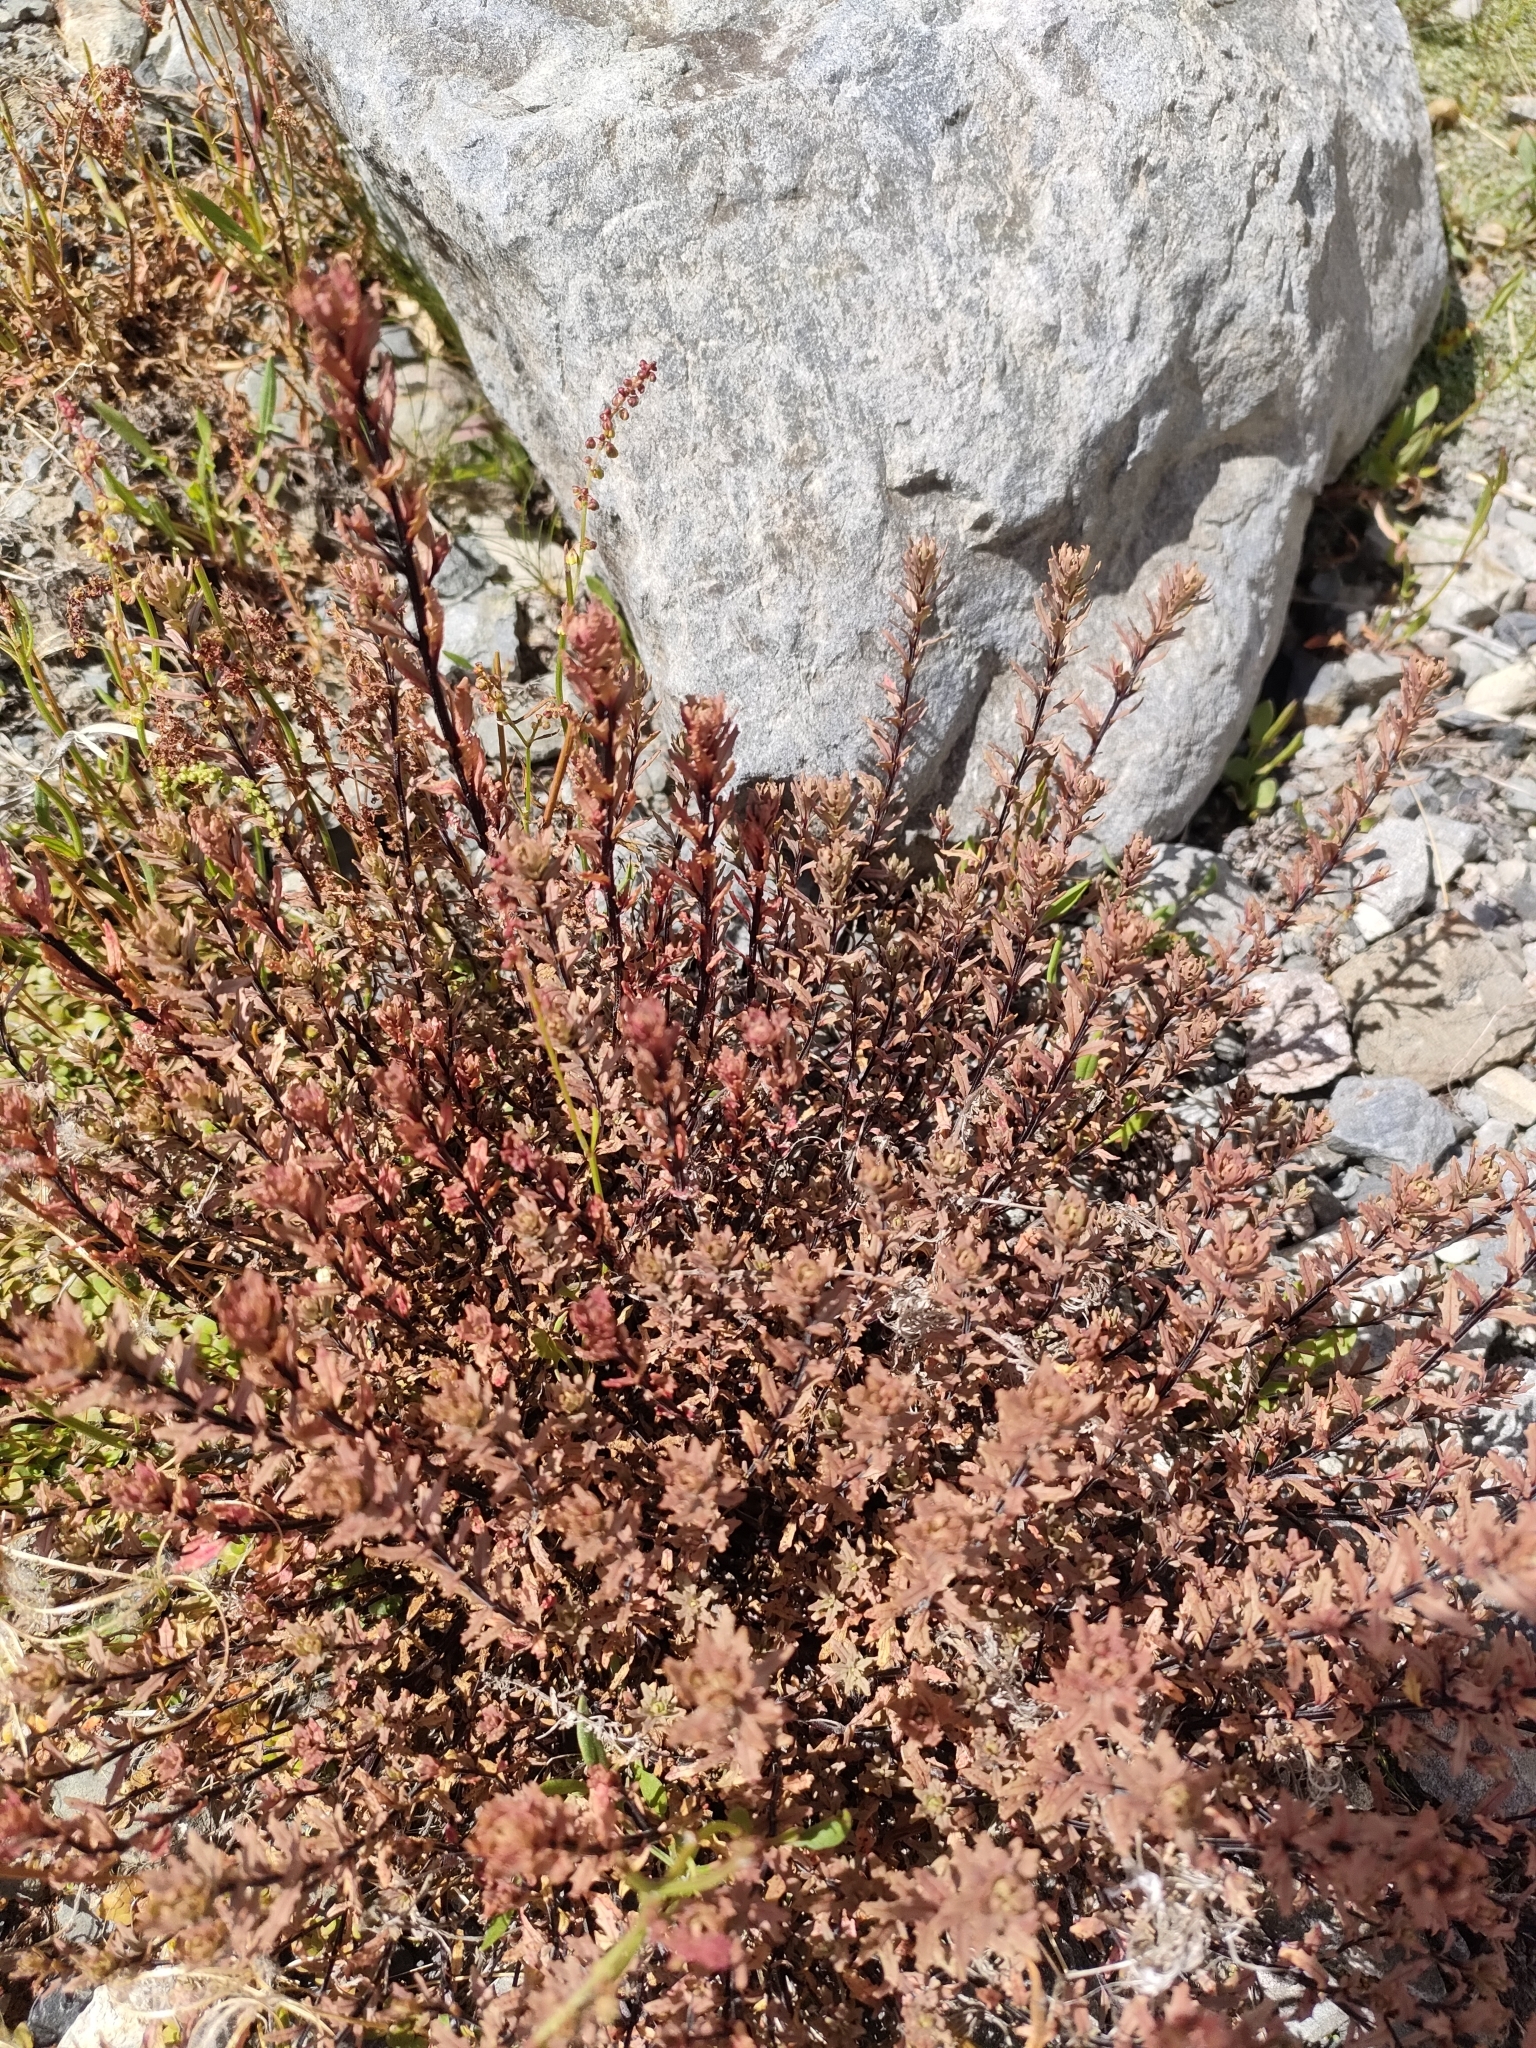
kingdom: Plantae
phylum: Tracheophyta
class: Magnoliopsida
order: Myrtales
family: Onagraceae
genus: Epilobium
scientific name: Epilobium melanocaulon
